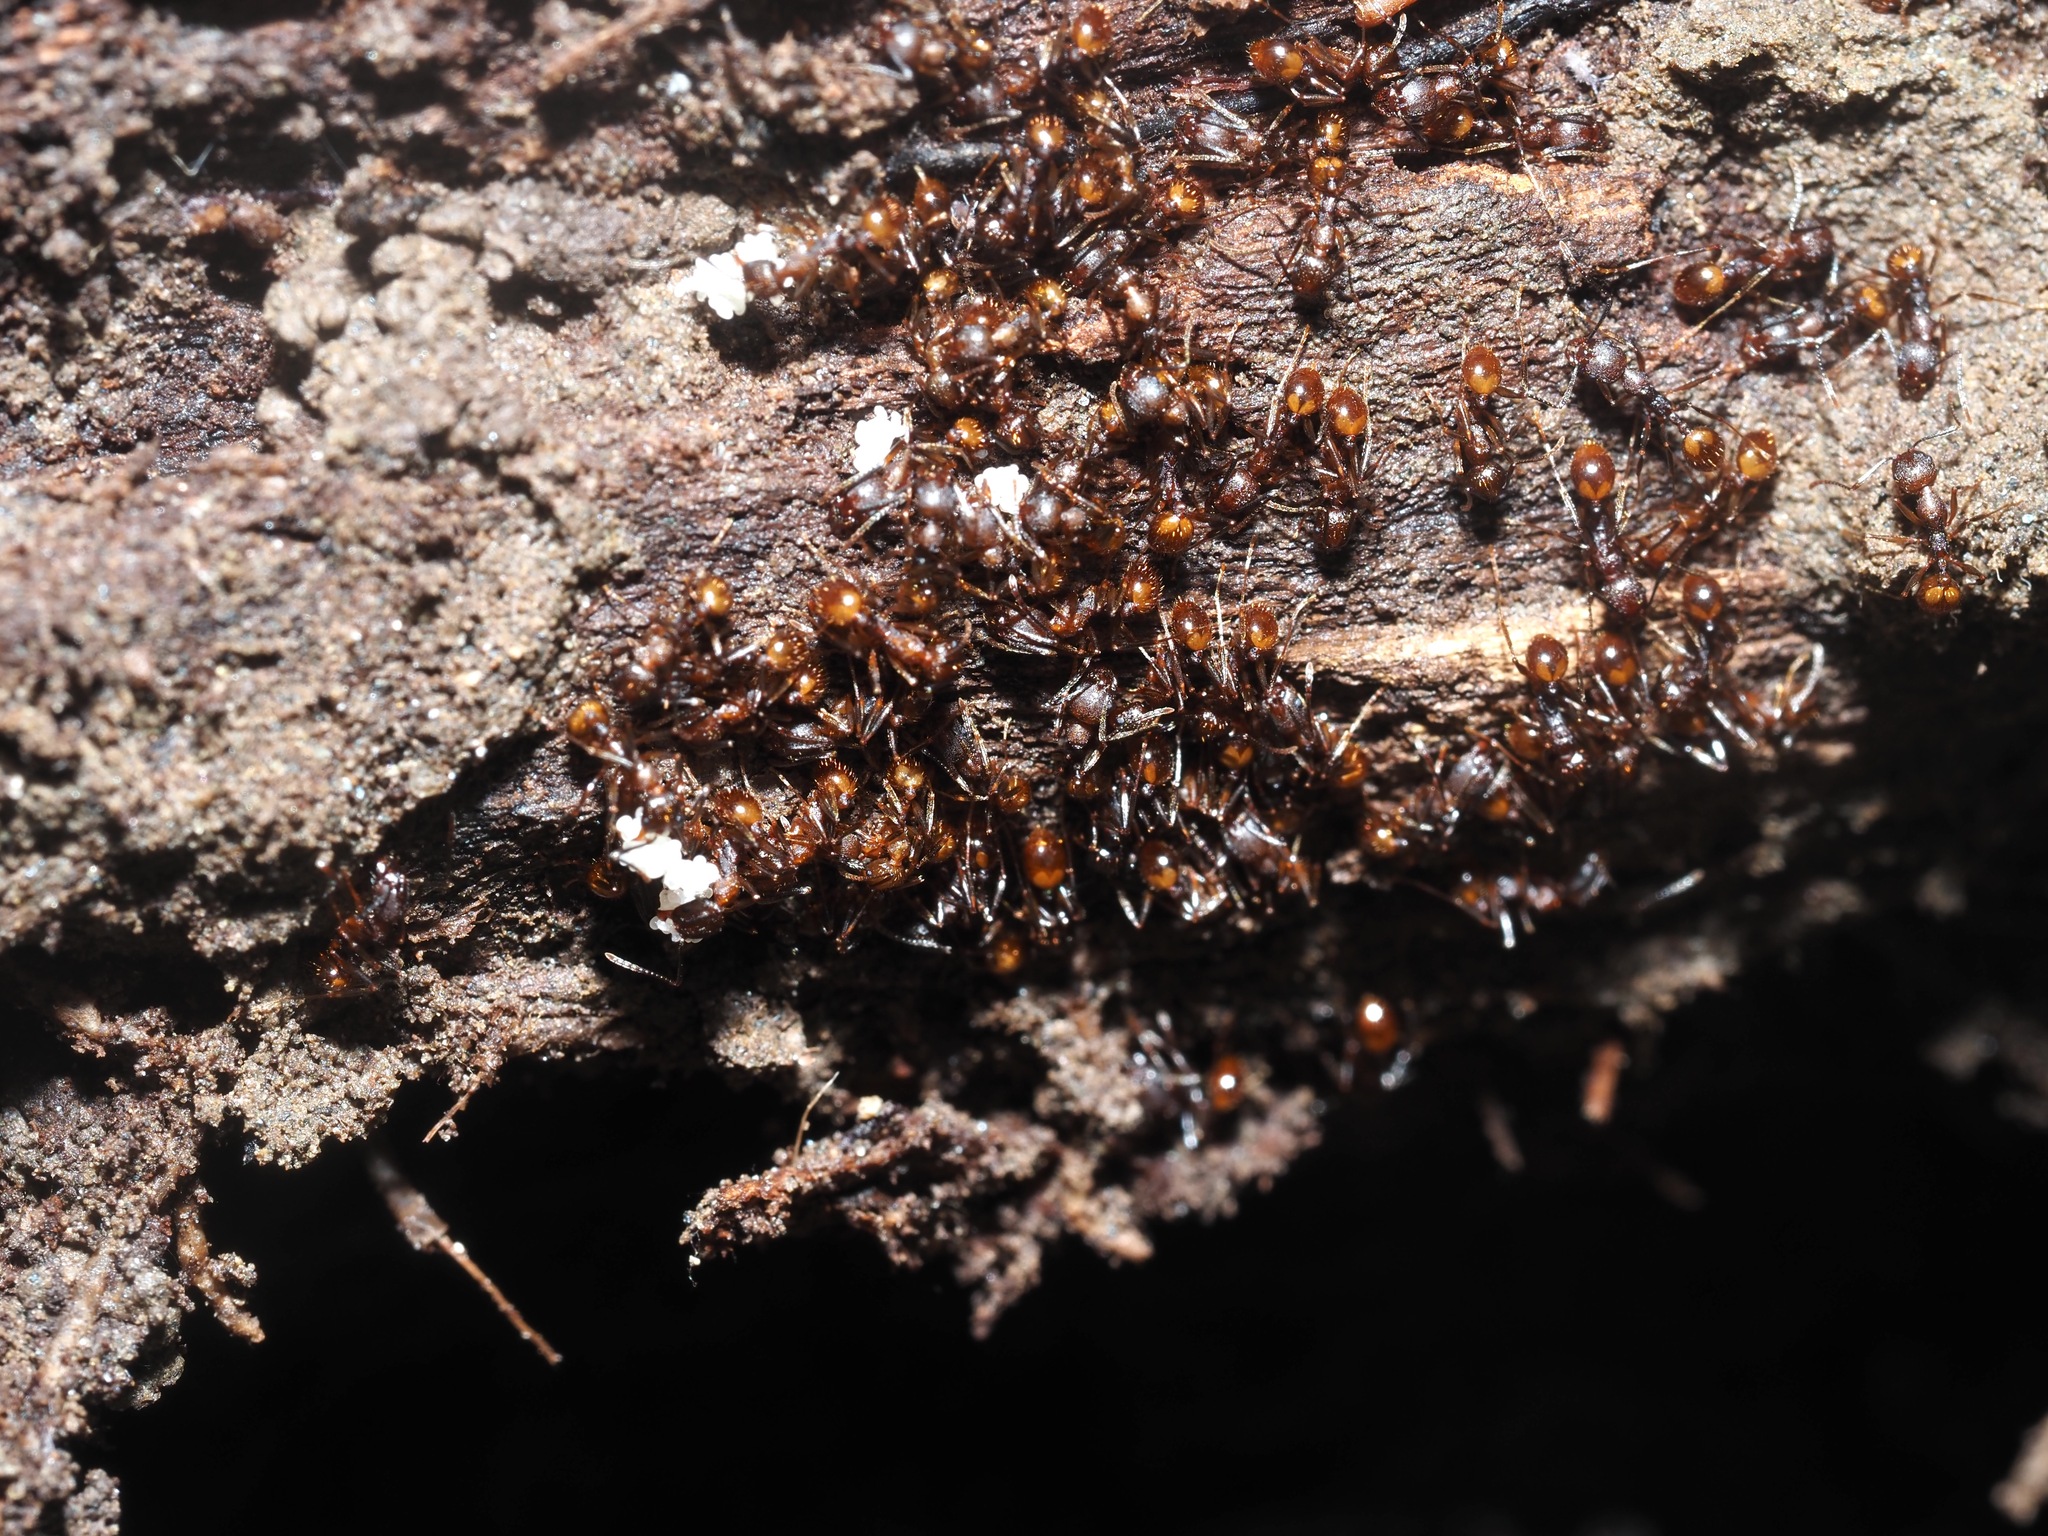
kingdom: Animalia
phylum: Arthropoda
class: Insecta
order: Hymenoptera
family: Formicidae
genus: Aphaenogaster
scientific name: Aphaenogaster fulva
